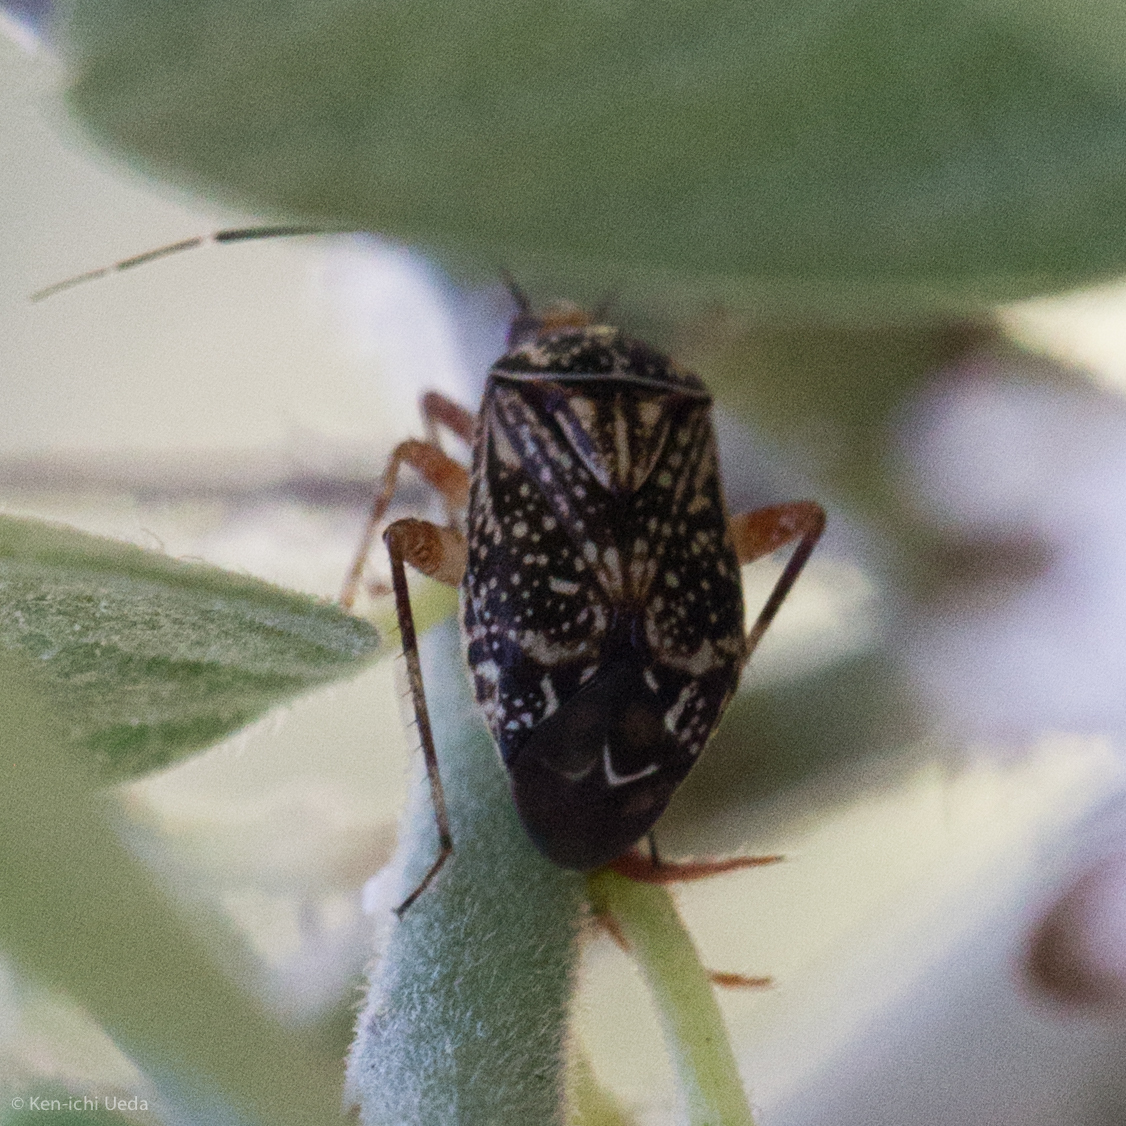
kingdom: Animalia
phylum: Arthropoda
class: Insecta
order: Hemiptera
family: Miridae
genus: Taedia
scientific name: Taedia maculosa
